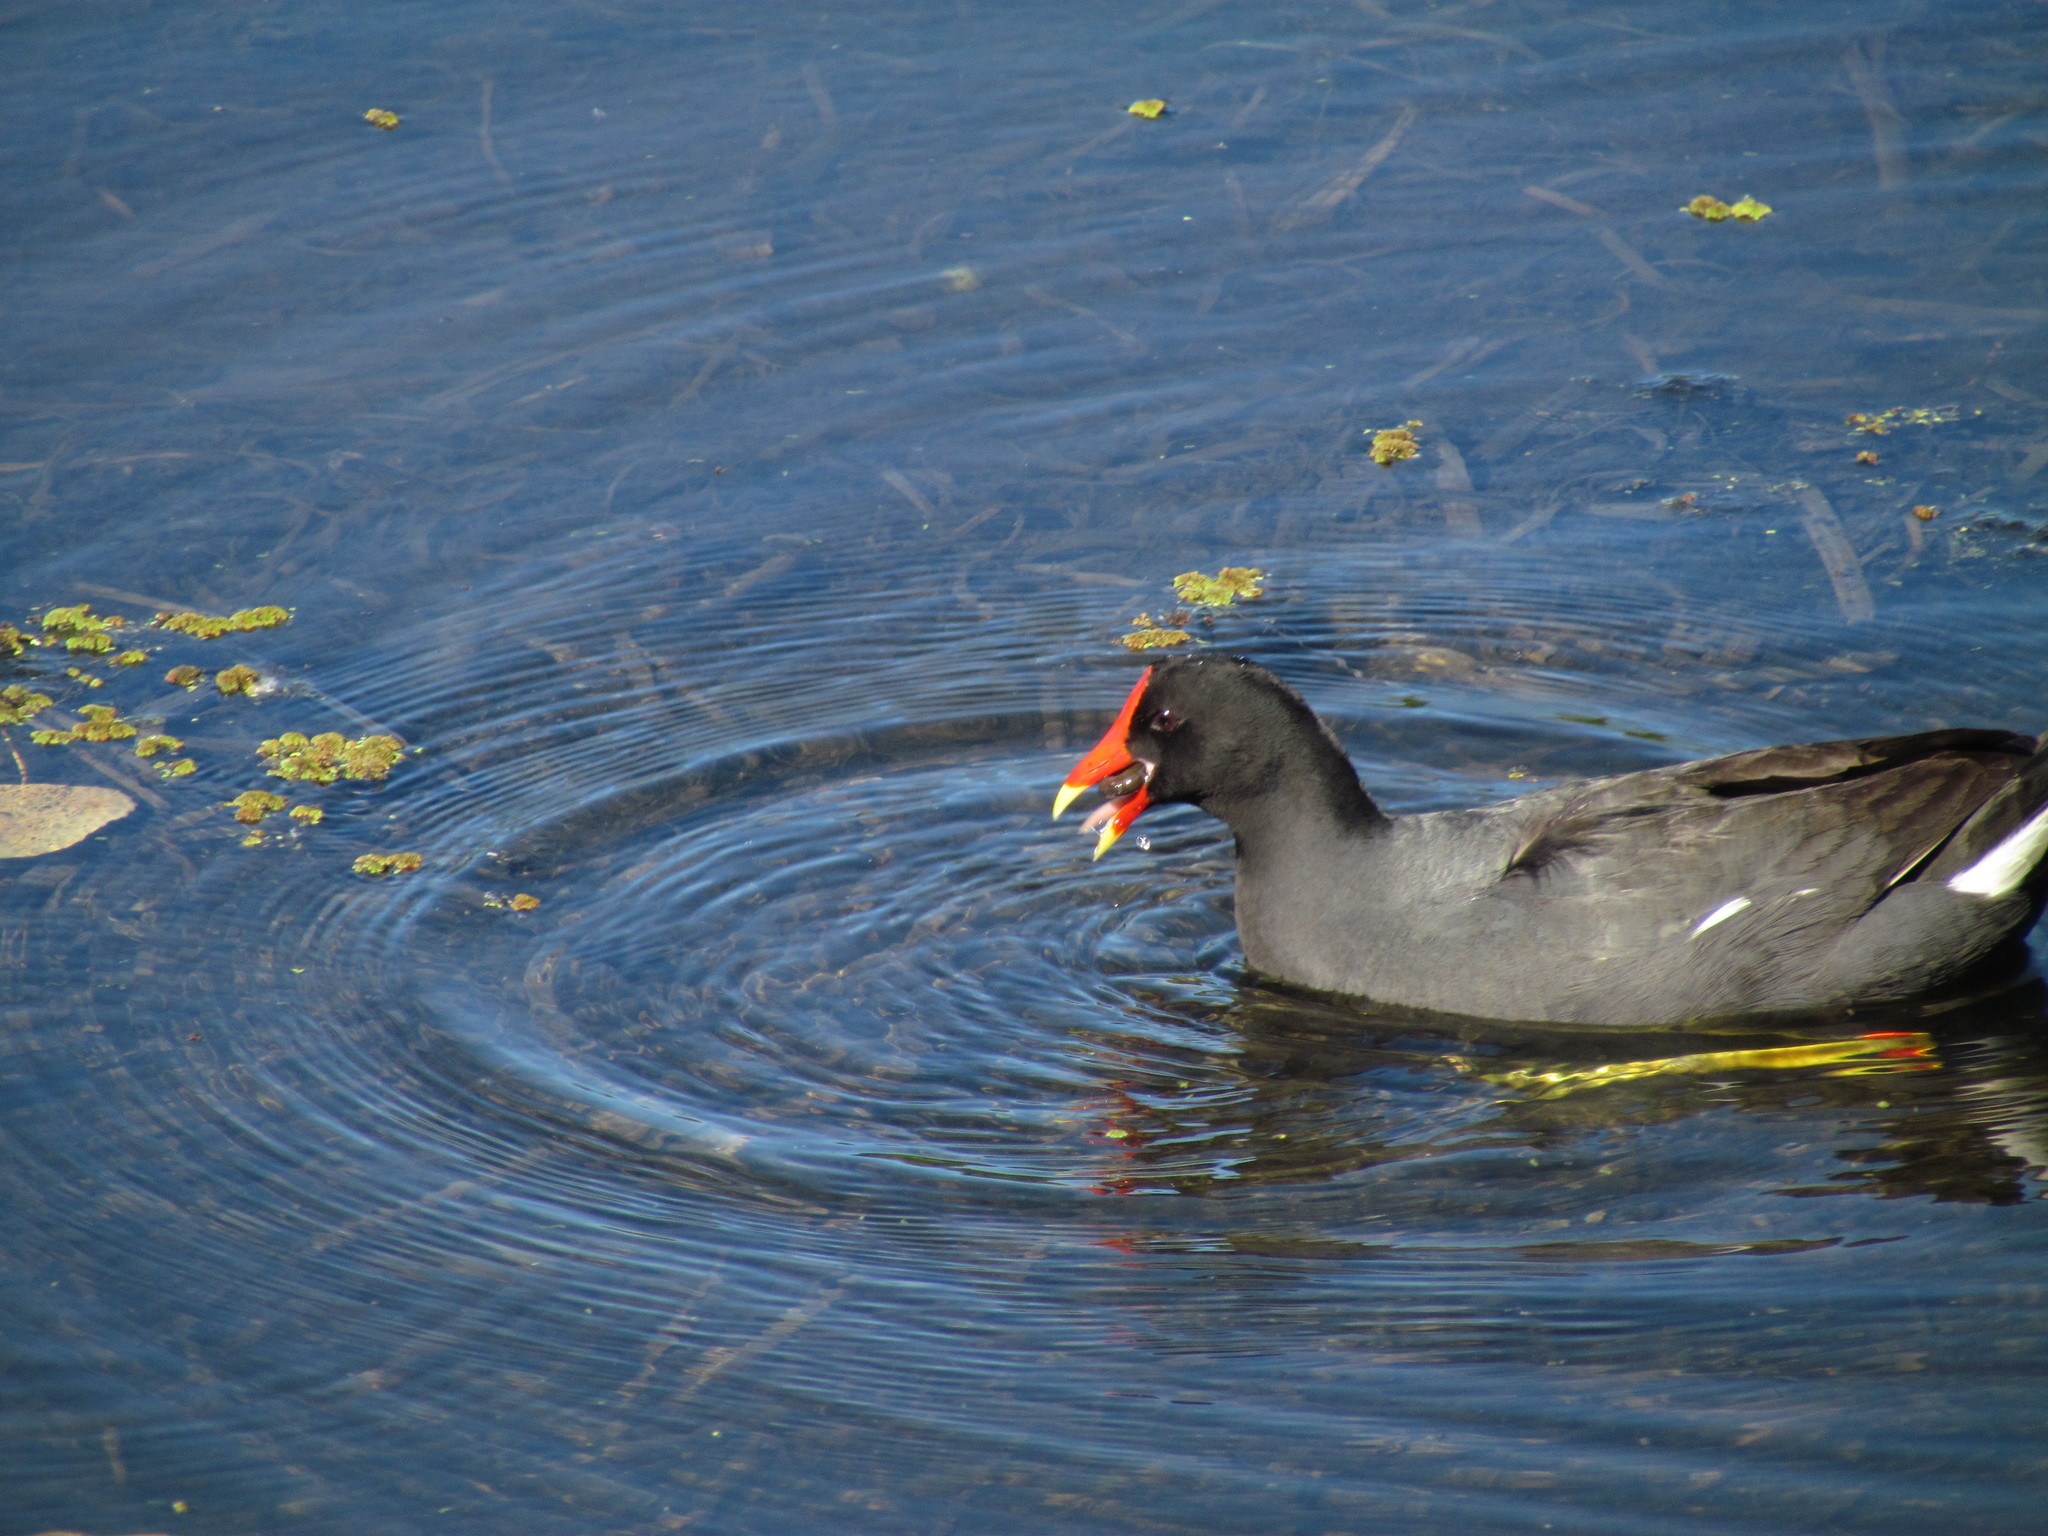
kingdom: Animalia
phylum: Chordata
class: Aves
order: Gruiformes
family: Rallidae
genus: Gallinula
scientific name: Gallinula chloropus
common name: Common moorhen
